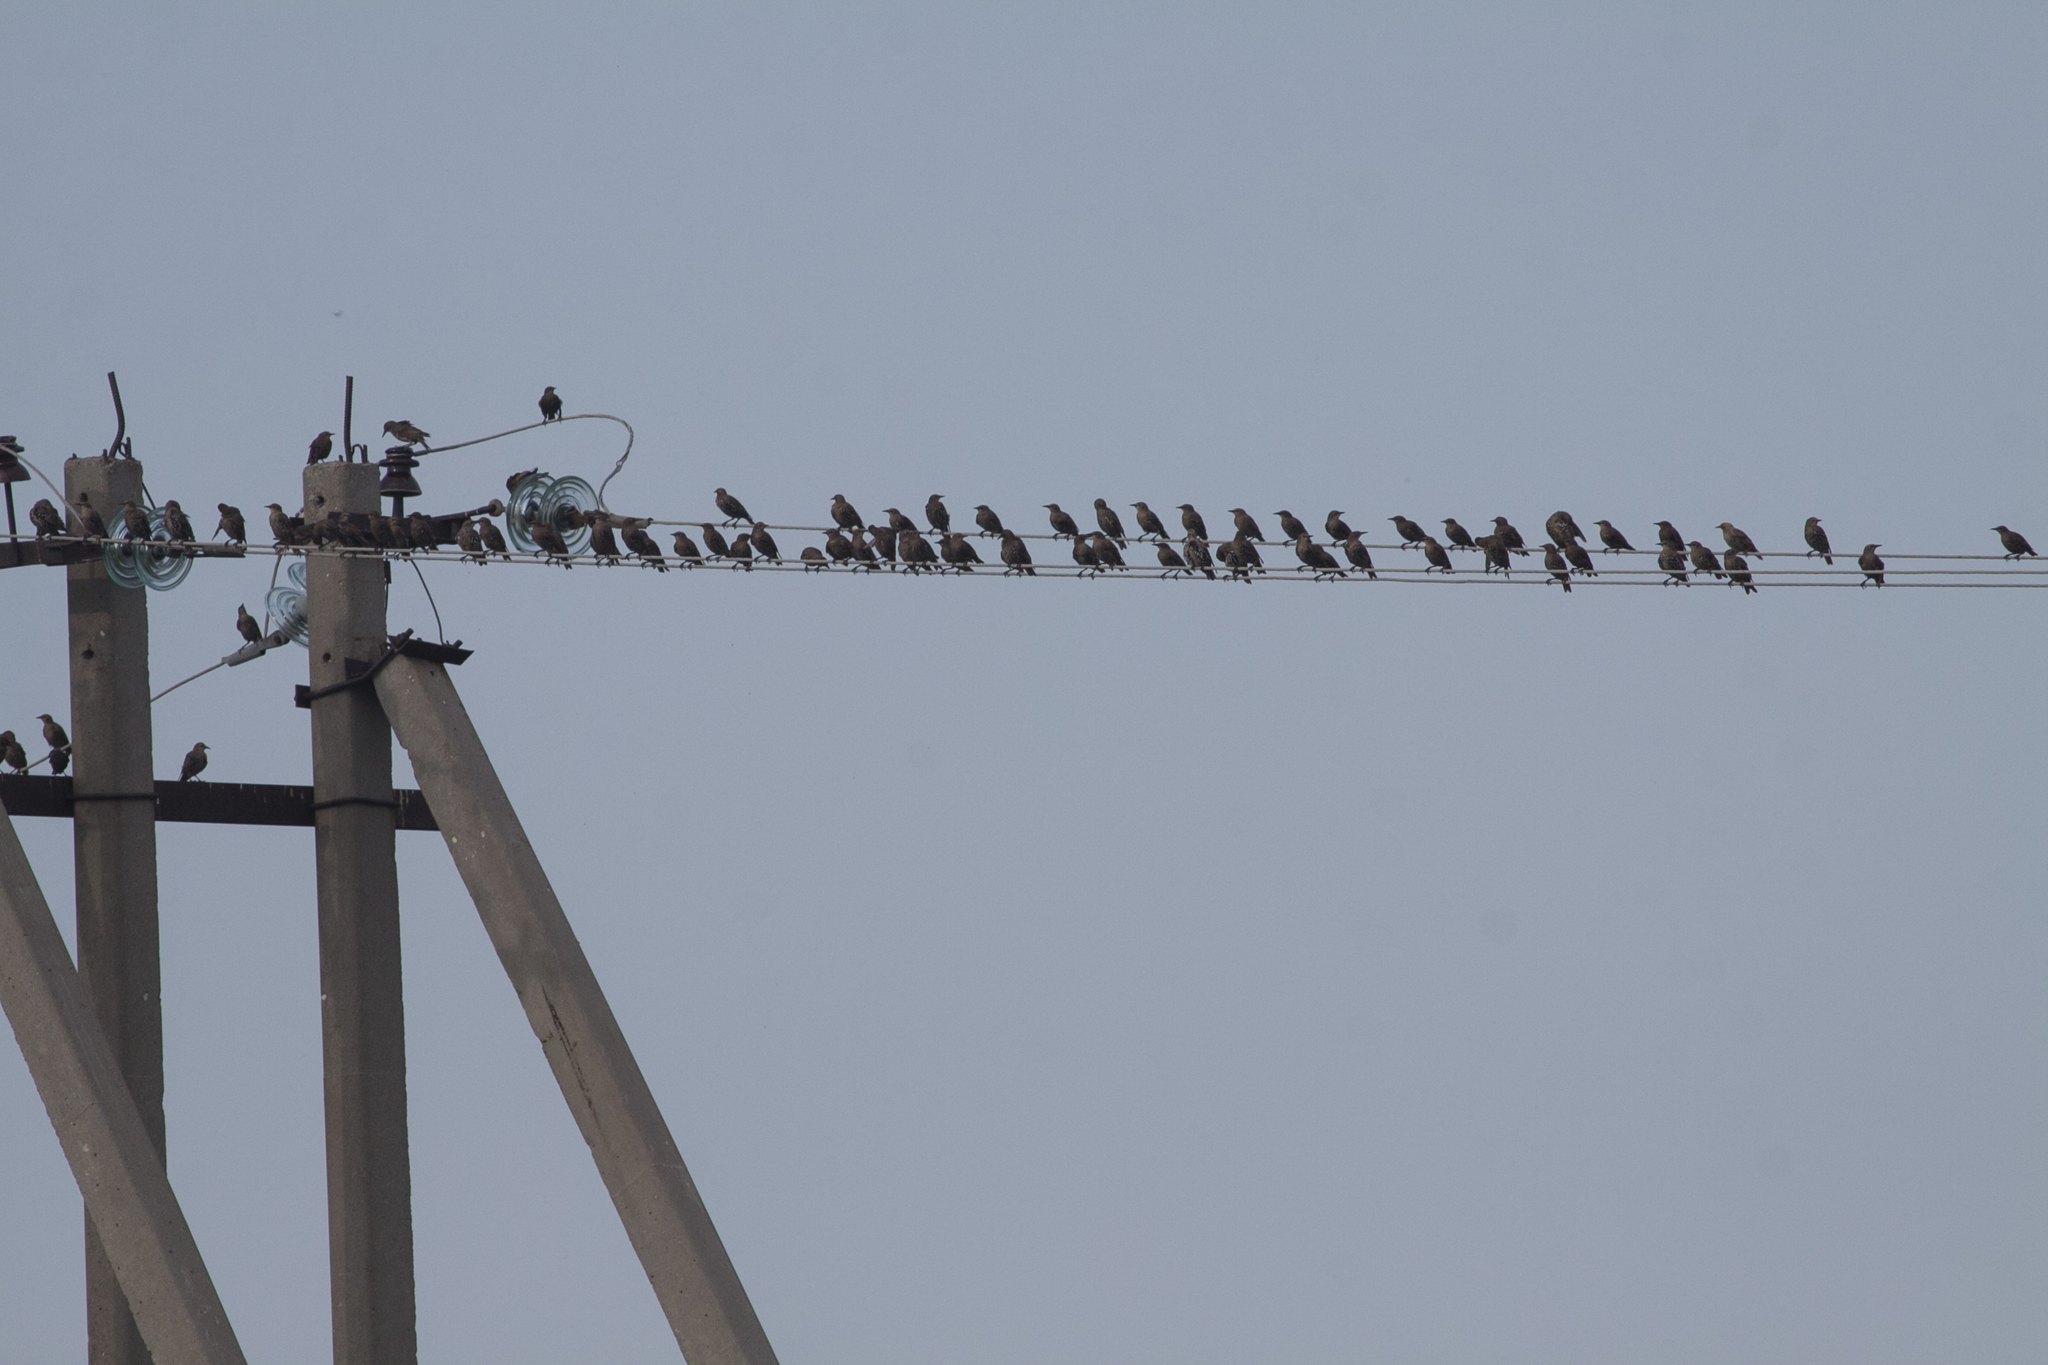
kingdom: Animalia
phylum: Chordata
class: Aves
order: Passeriformes
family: Sturnidae
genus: Sturnus
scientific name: Sturnus vulgaris
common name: Common starling
